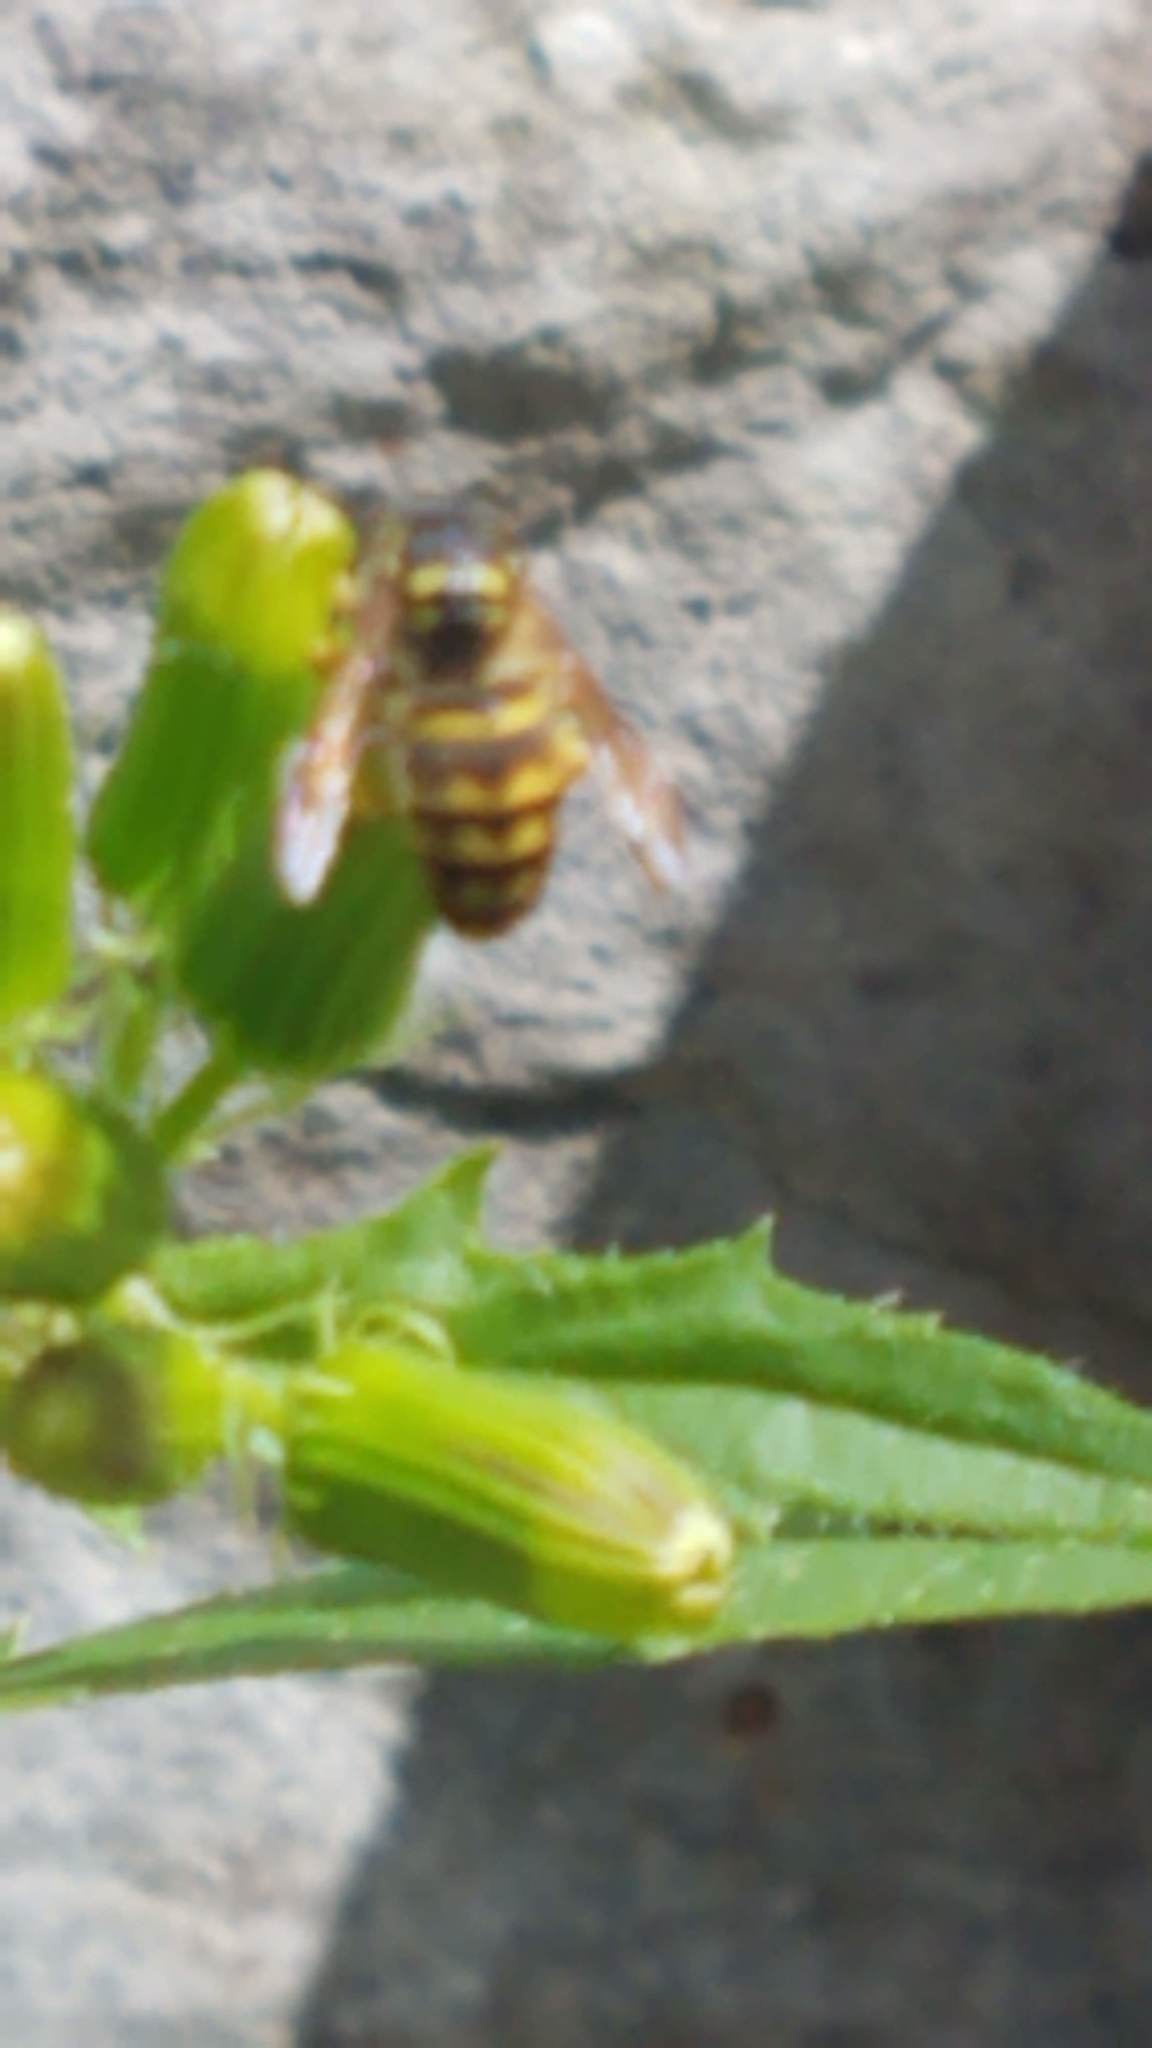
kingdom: Animalia
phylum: Arthropoda
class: Insecta
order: Hymenoptera
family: Vespidae
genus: Dolichovespula
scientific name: Dolichovespula arenaria
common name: Aerial yellowjacket
